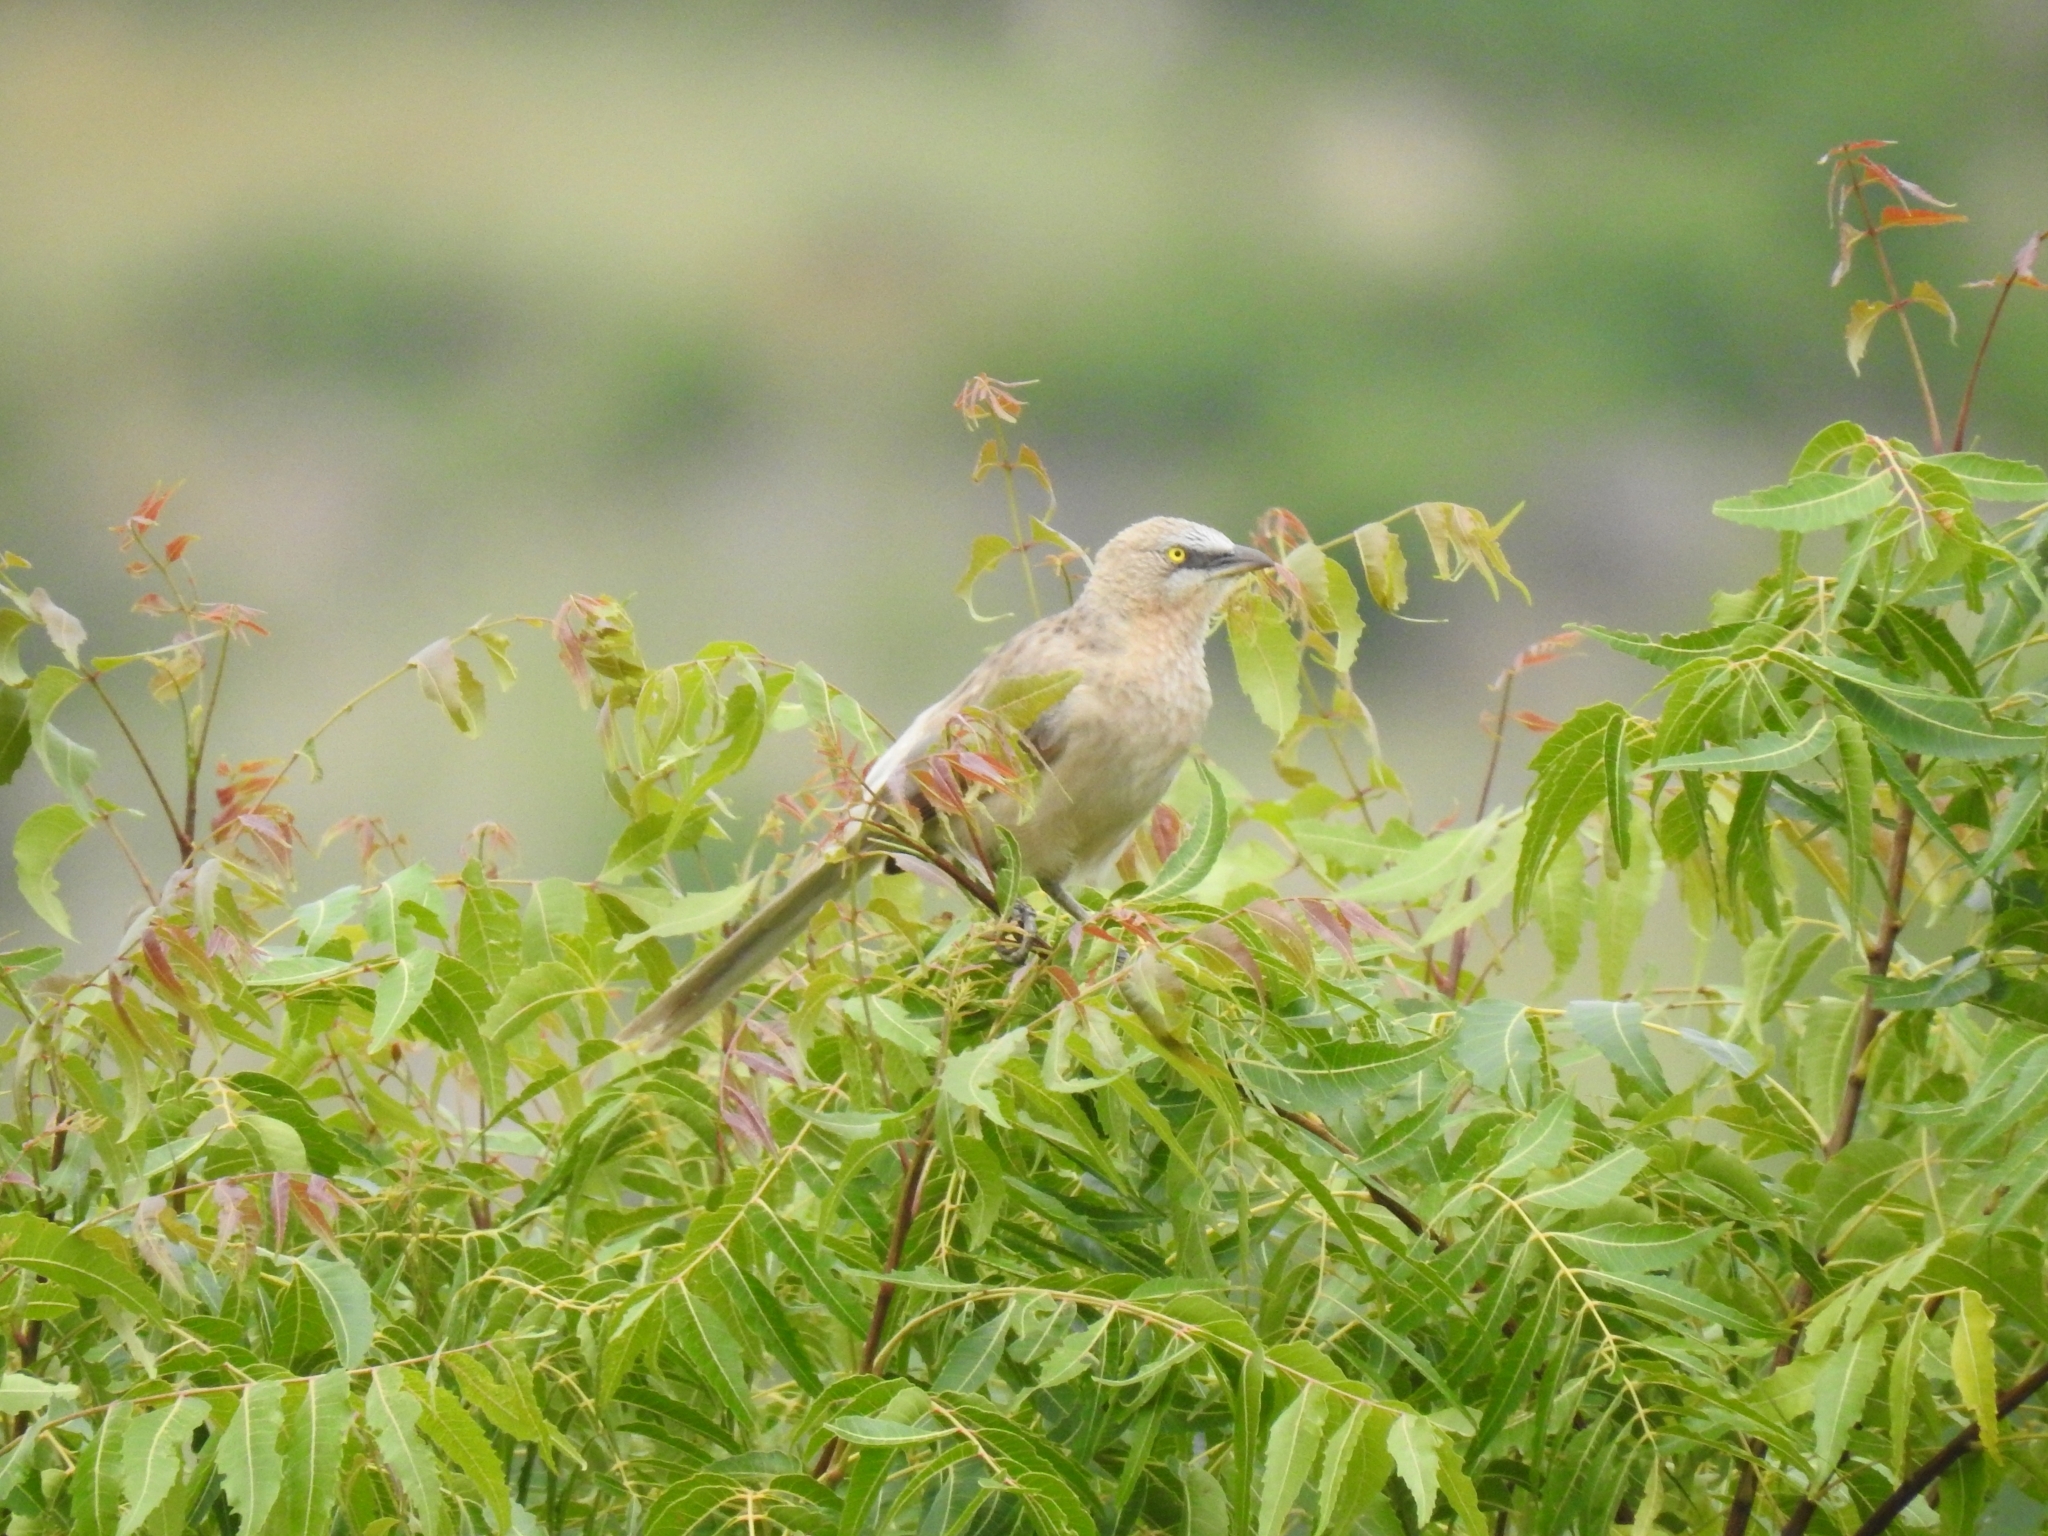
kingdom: Animalia
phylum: Chordata
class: Aves
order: Passeriformes
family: Leiothrichidae
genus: Turdoides
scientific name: Turdoides malcolmi
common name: Large grey babbler
